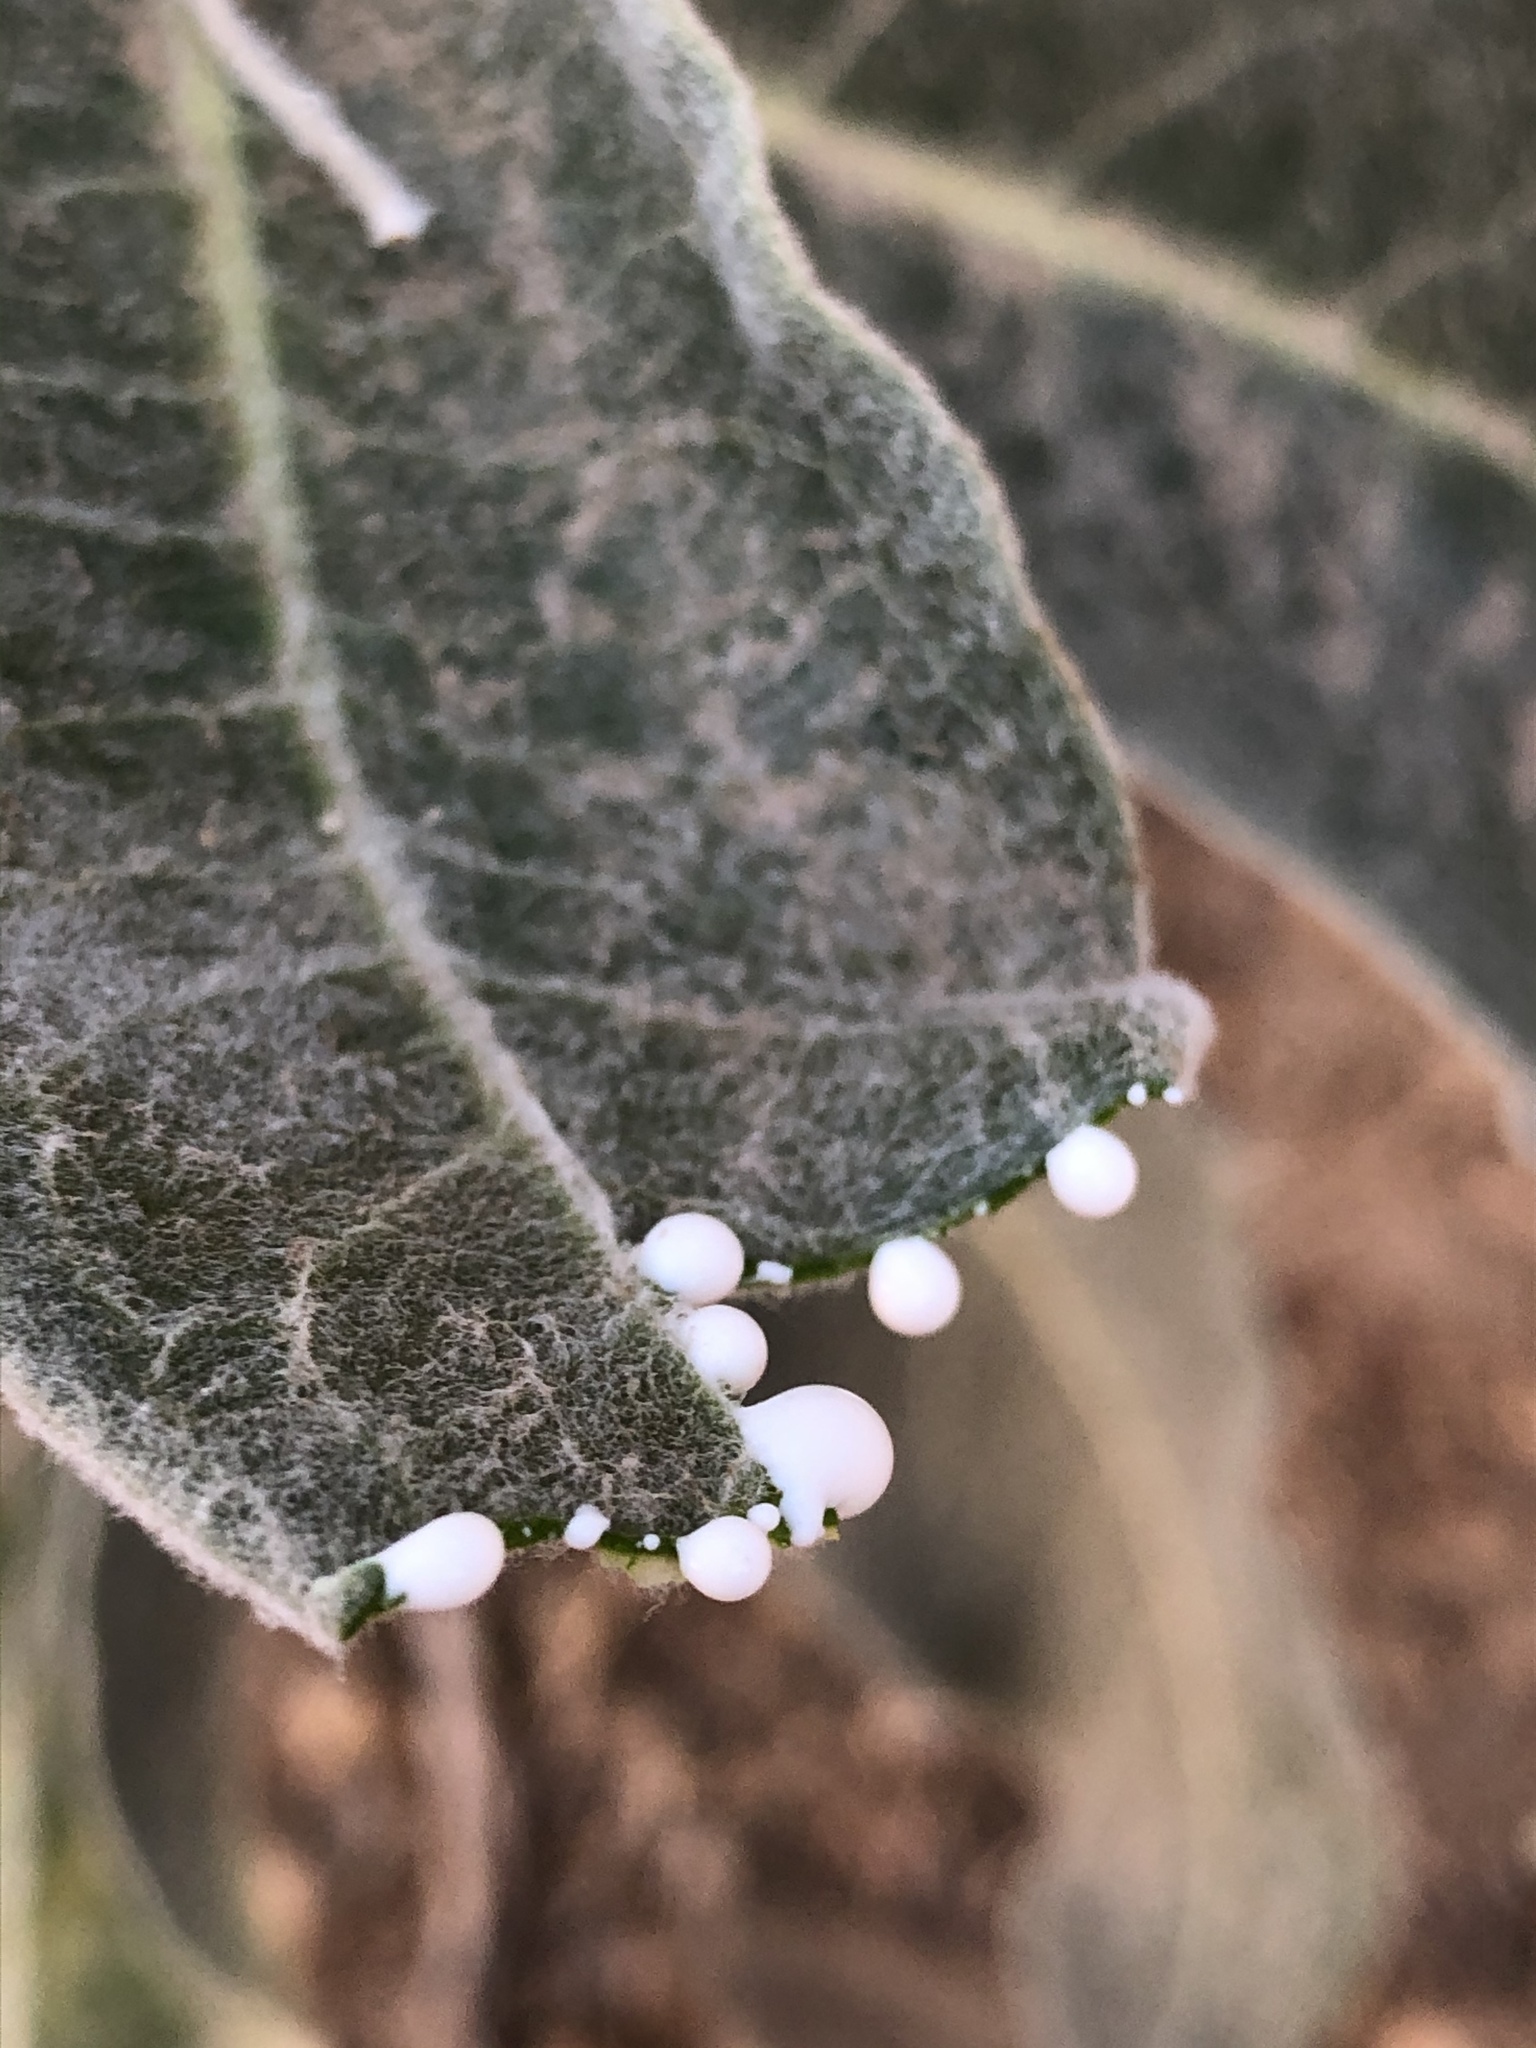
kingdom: Plantae
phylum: Tracheophyta
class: Magnoliopsida
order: Gentianales
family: Apocynaceae
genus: Asclepias
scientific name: Asclepias eriocarpa
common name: Indian milkweed
